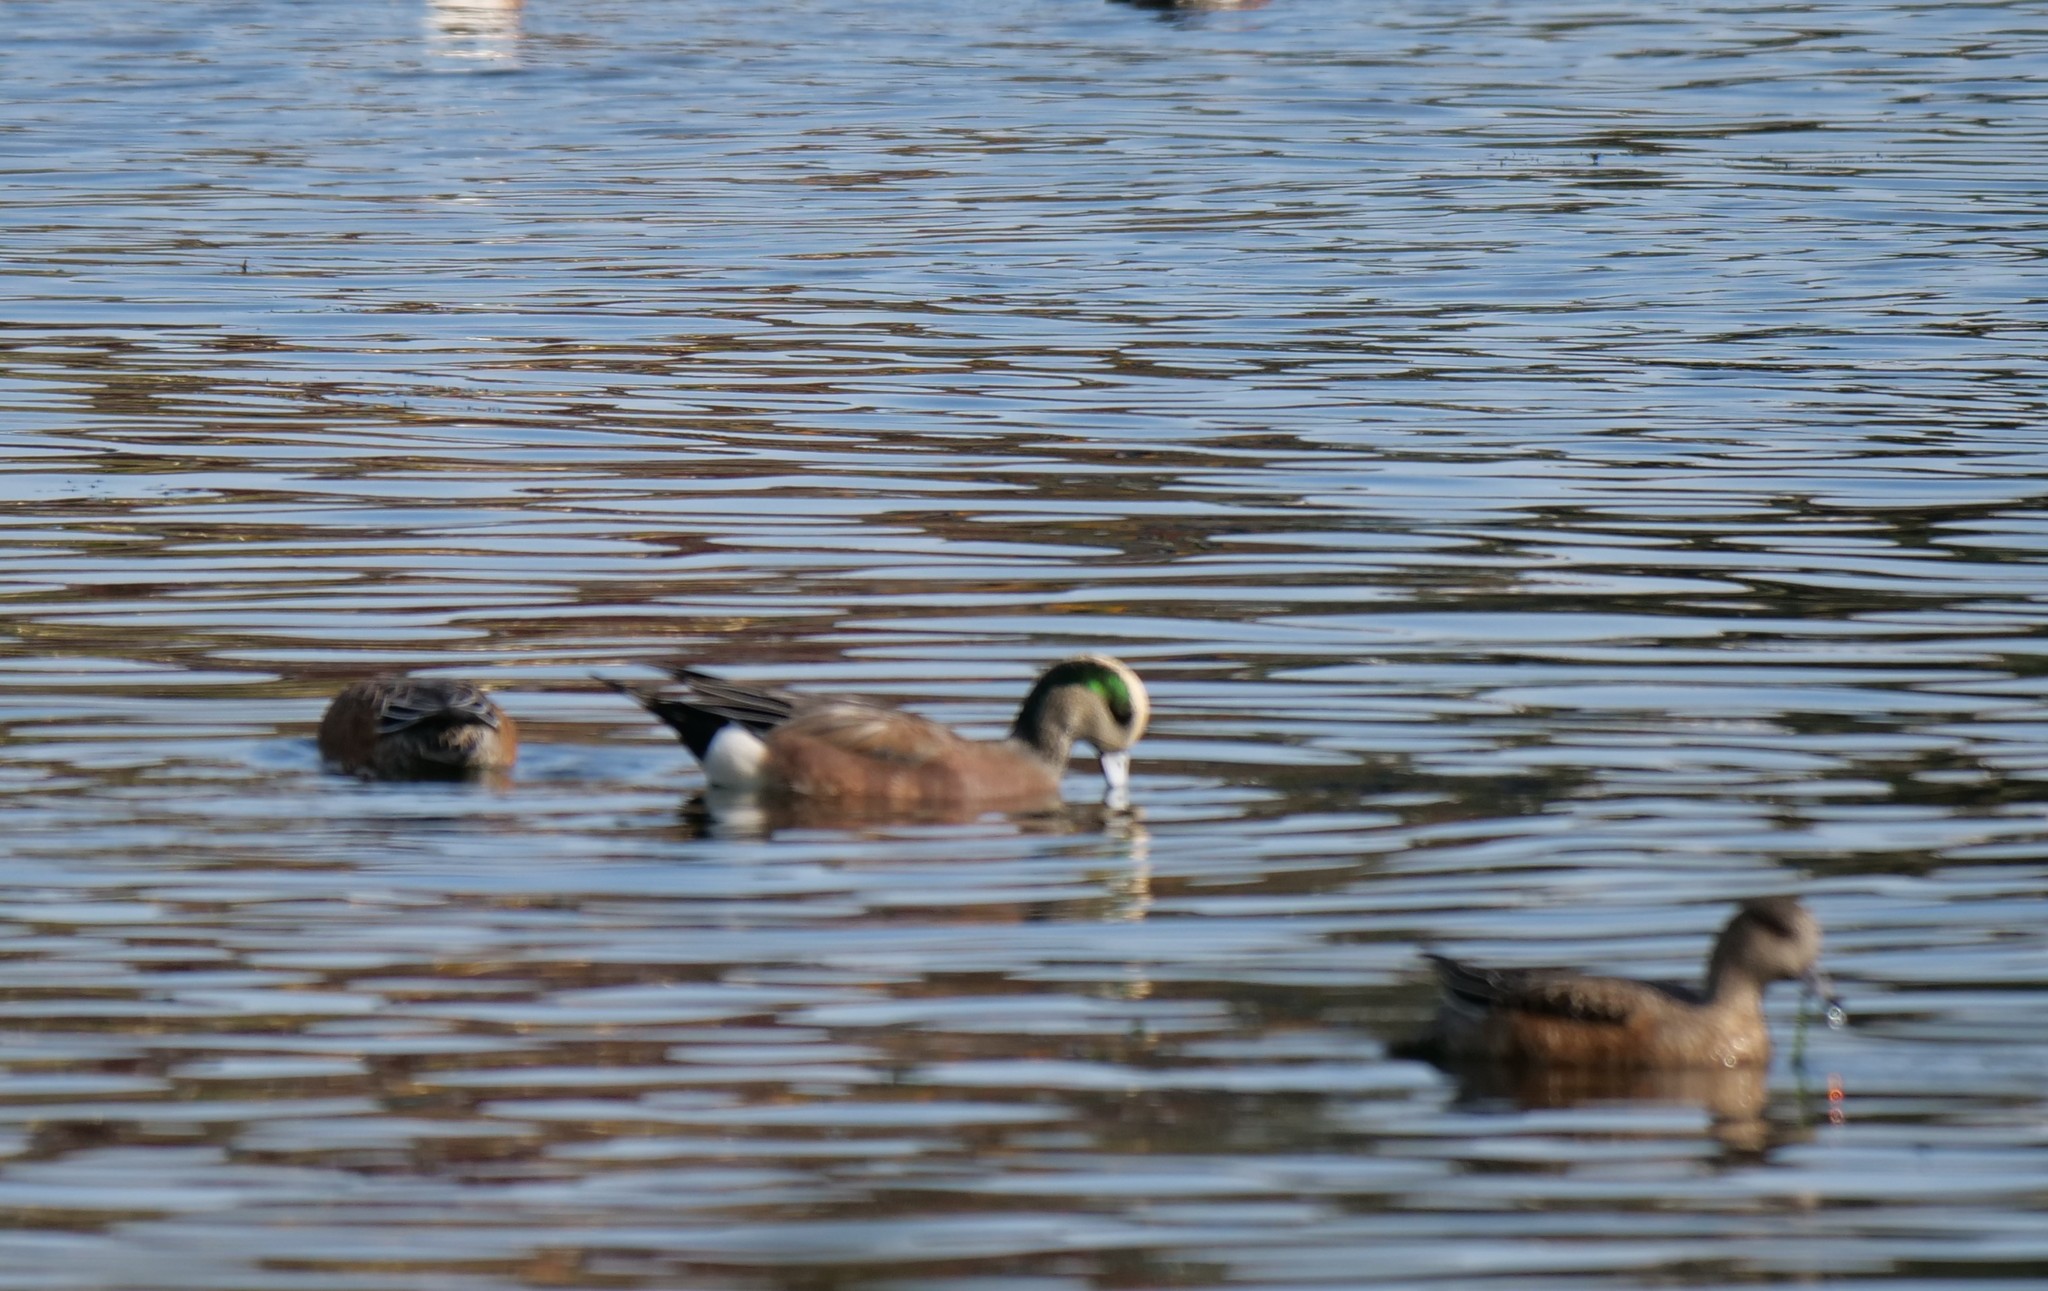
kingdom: Animalia
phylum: Chordata
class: Aves
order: Anseriformes
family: Anatidae
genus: Mareca
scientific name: Mareca americana
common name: American wigeon
